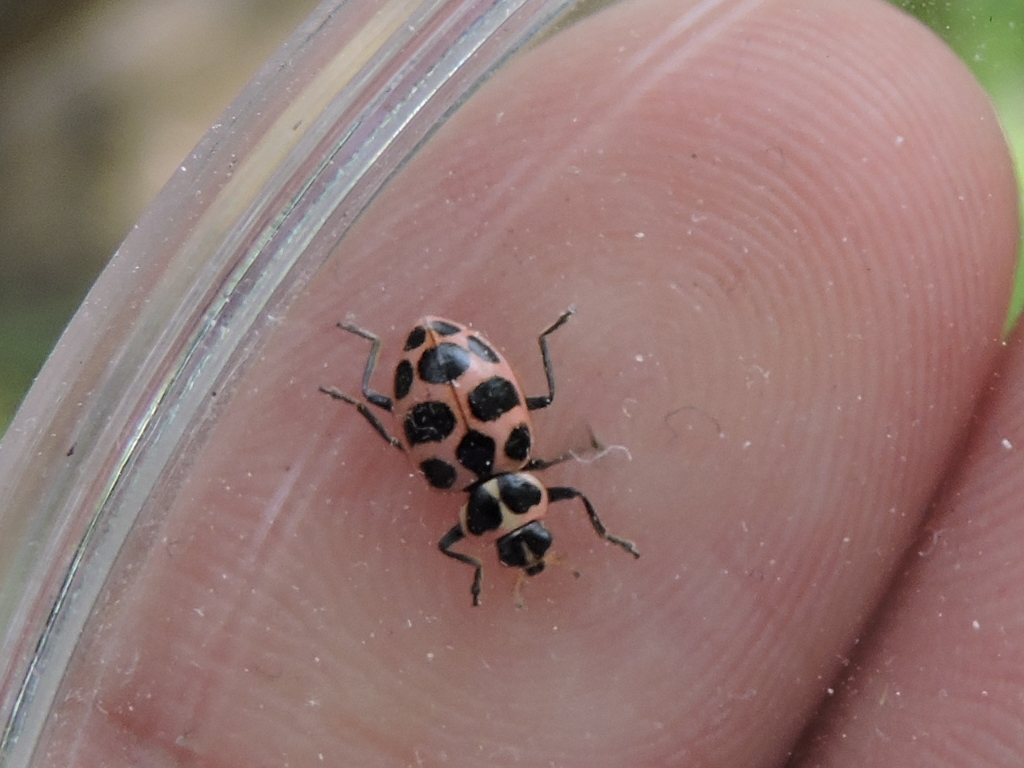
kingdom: Animalia
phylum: Arthropoda
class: Insecta
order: Coleoptera
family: Coccinellidae
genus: Coleomegilla
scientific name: Coleomegilla maculata
